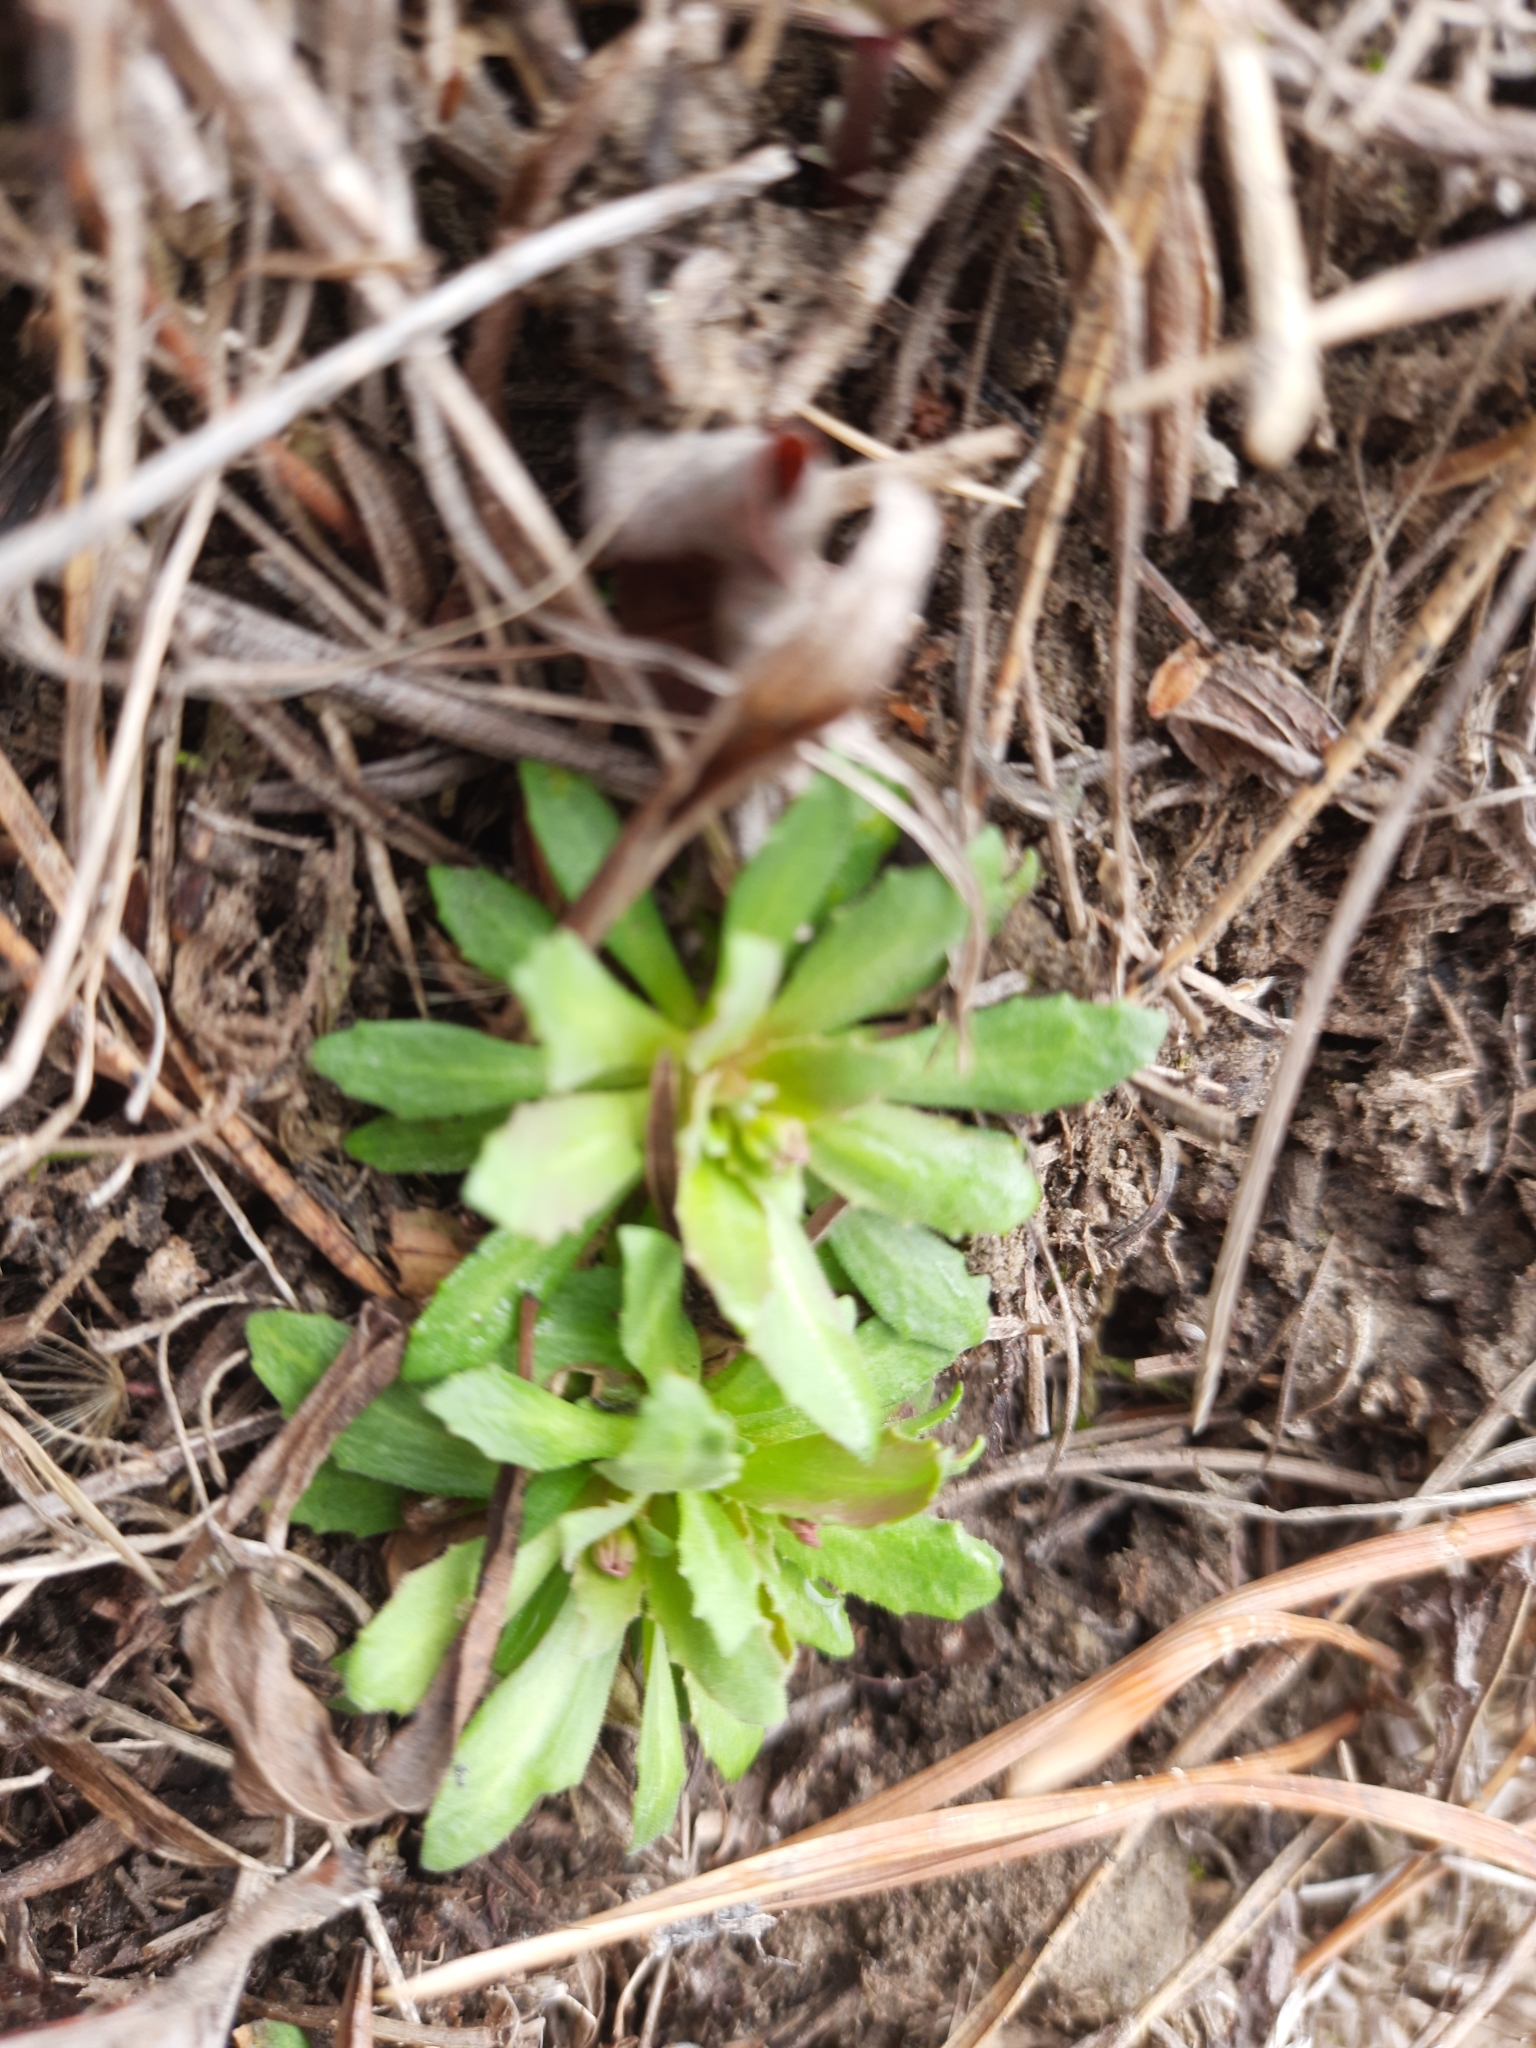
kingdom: Plantae
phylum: Tracheophyta
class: Magnoliopsida
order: Ericales
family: Primulaceae
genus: Androsace
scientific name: Androsace septentrionalis
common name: Hairy northern fairy-candelabra
